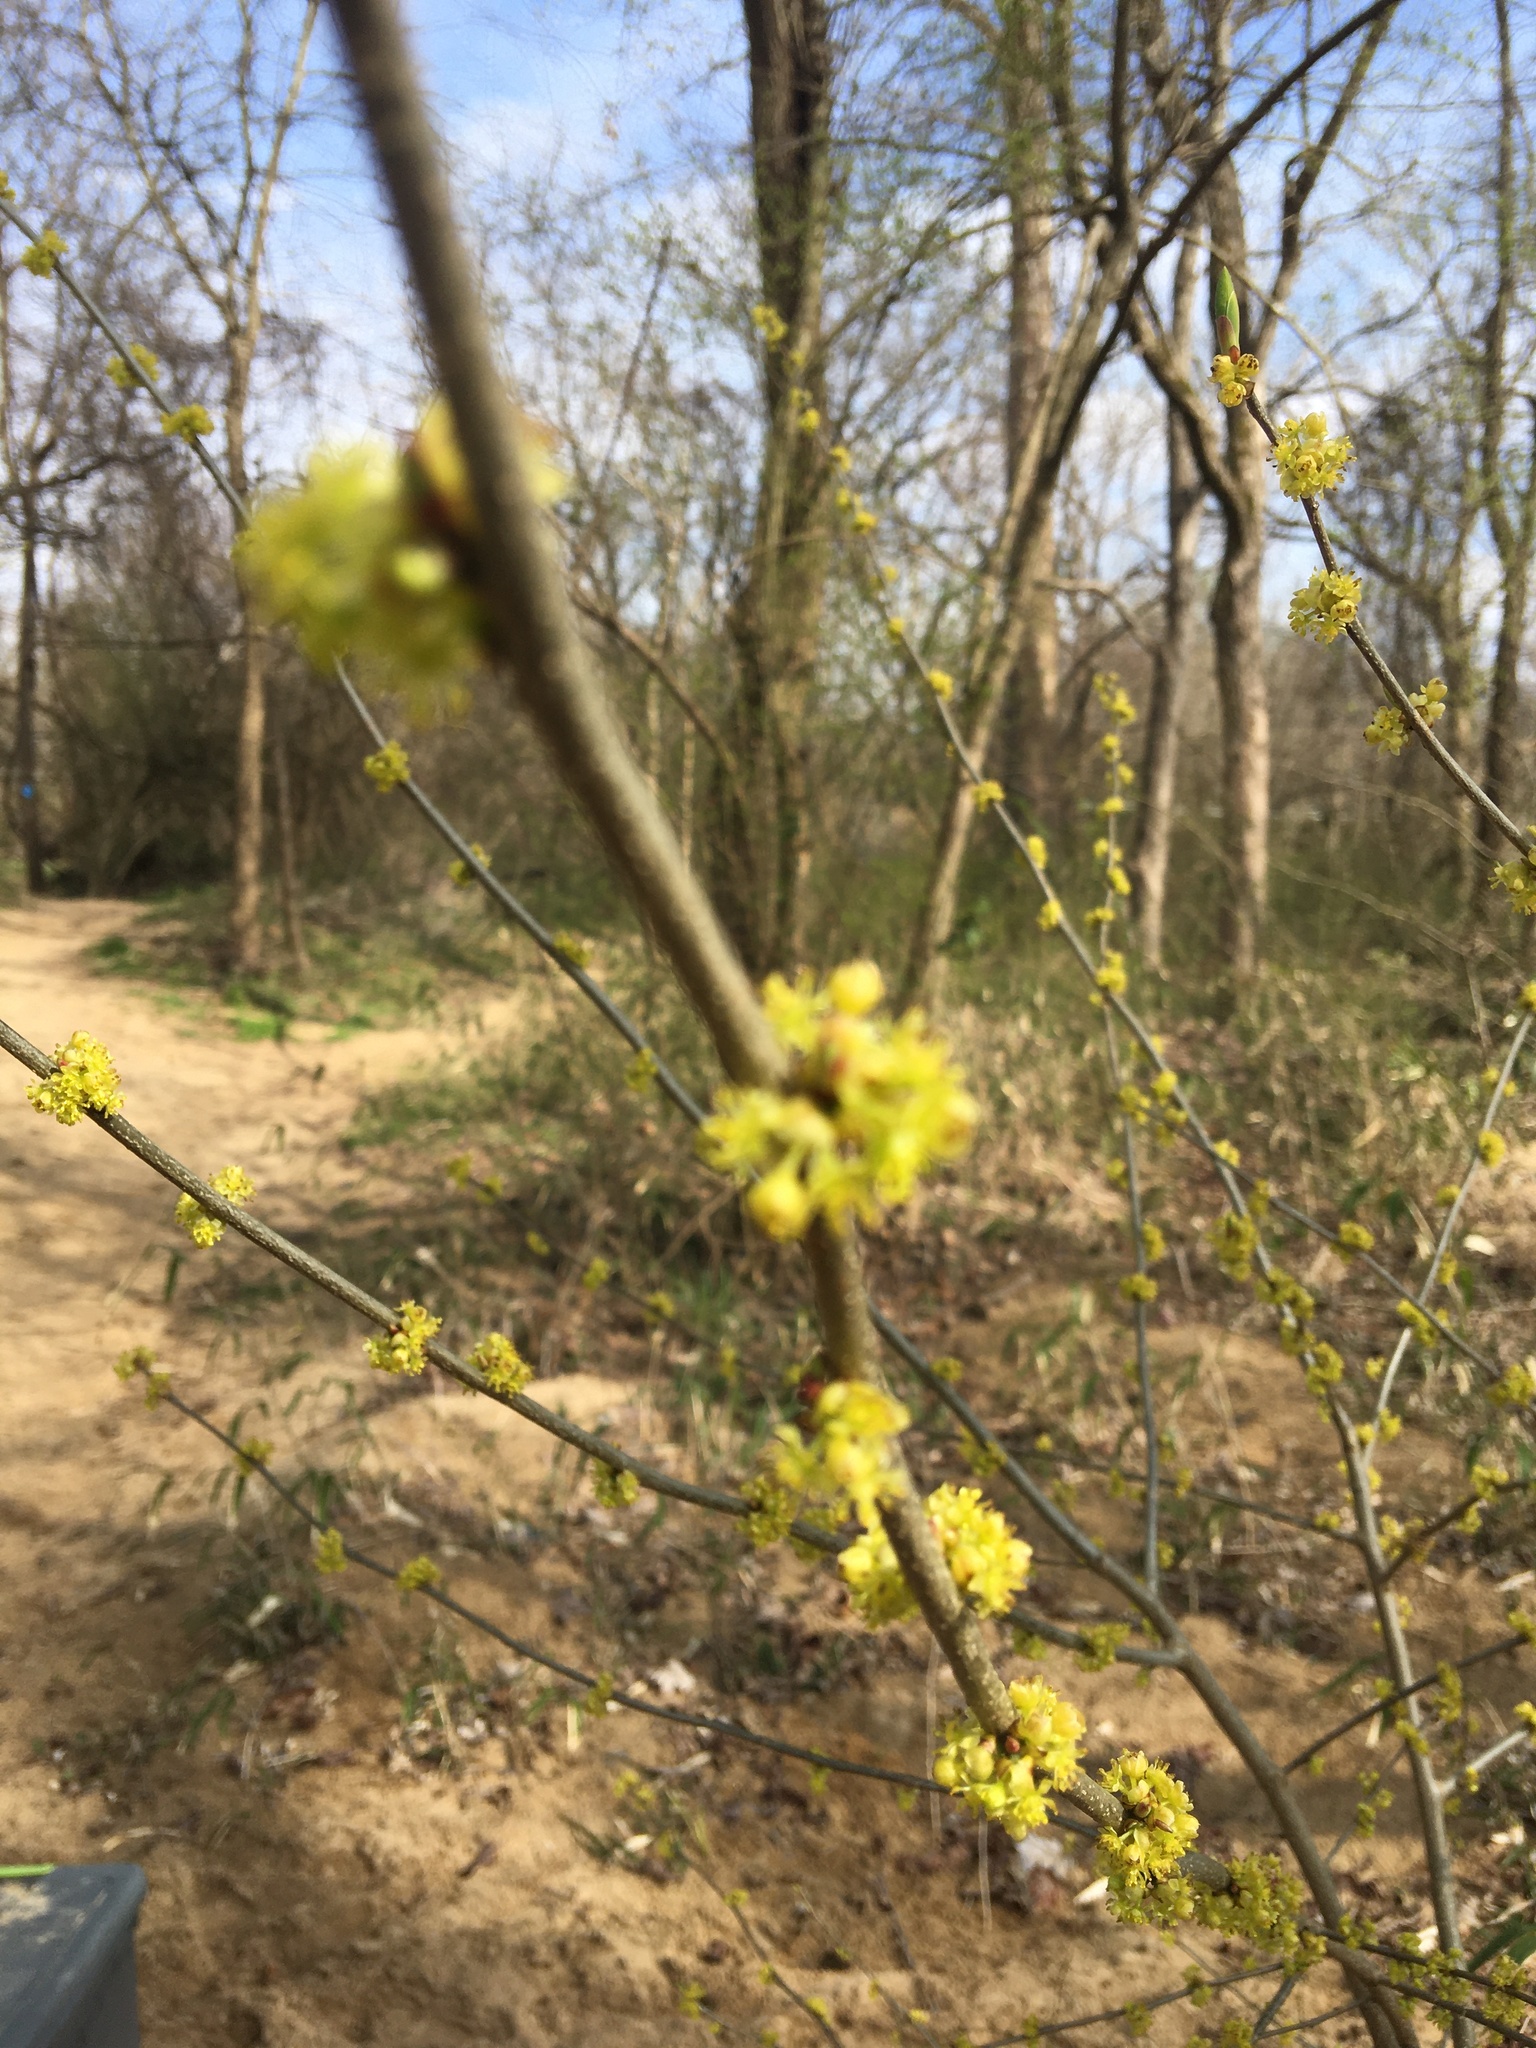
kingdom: Plantae
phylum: Tracheophyta
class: Magnoliopsida
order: Laurales
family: Lauraceae
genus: Lindera
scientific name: Lindera benzoin
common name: Spicebush
